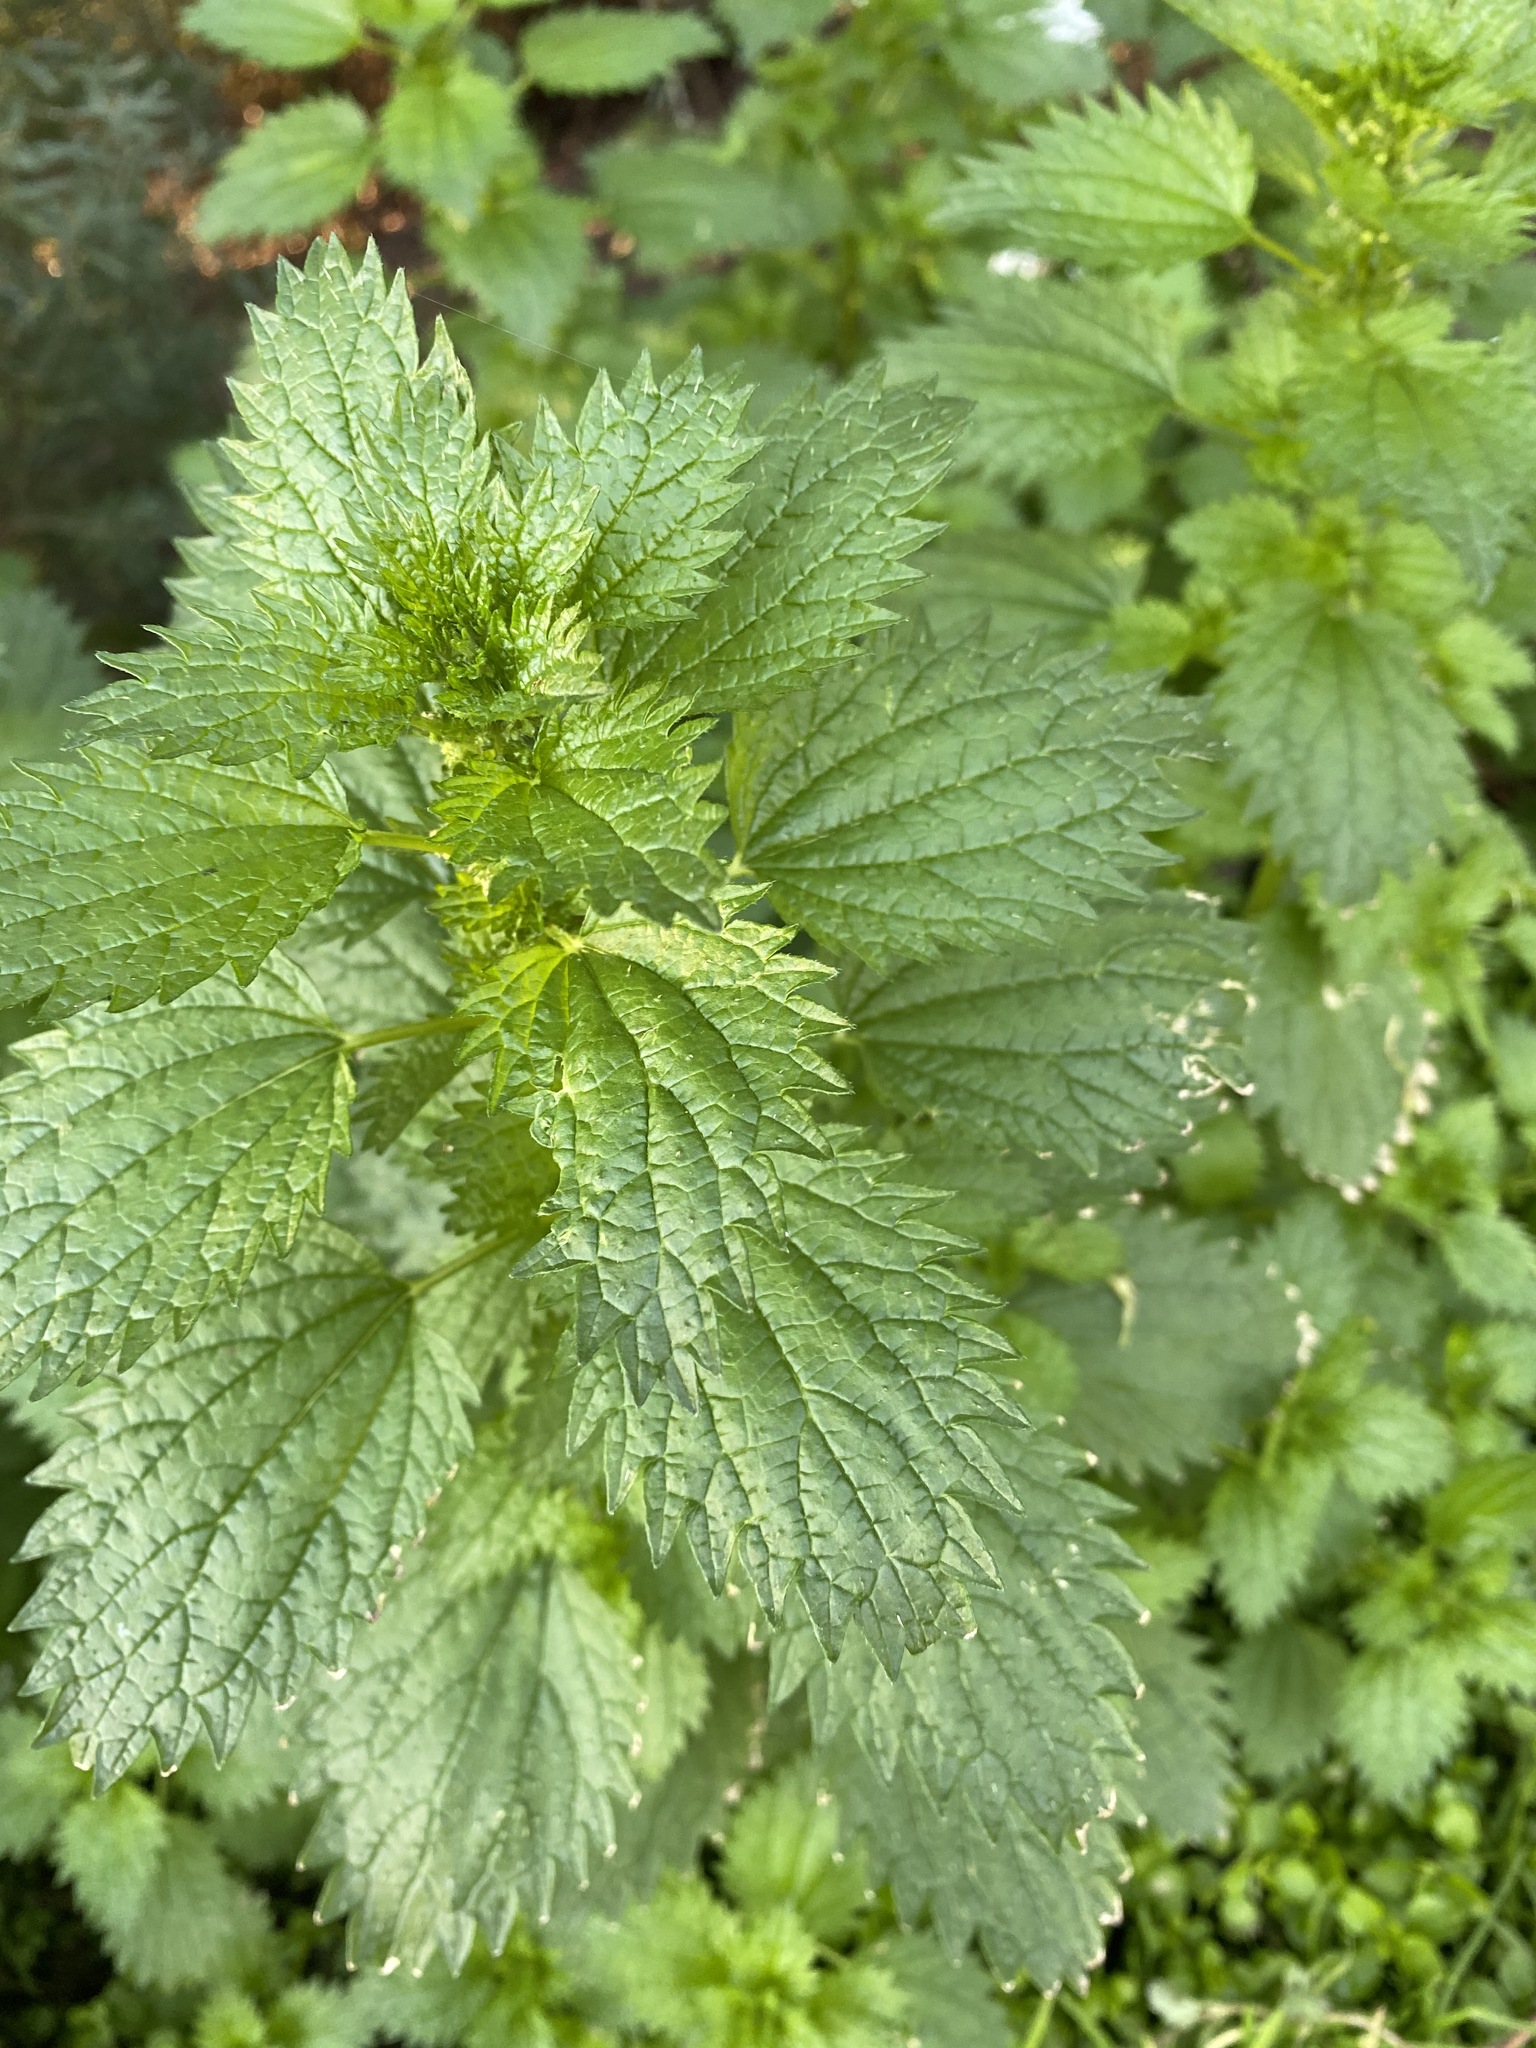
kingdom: Plantae
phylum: Tracheophyta
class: Magnoliopsida
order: Rosales
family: Urticaceae
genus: Urtica
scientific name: Urtica urens
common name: Dwarf nettle
